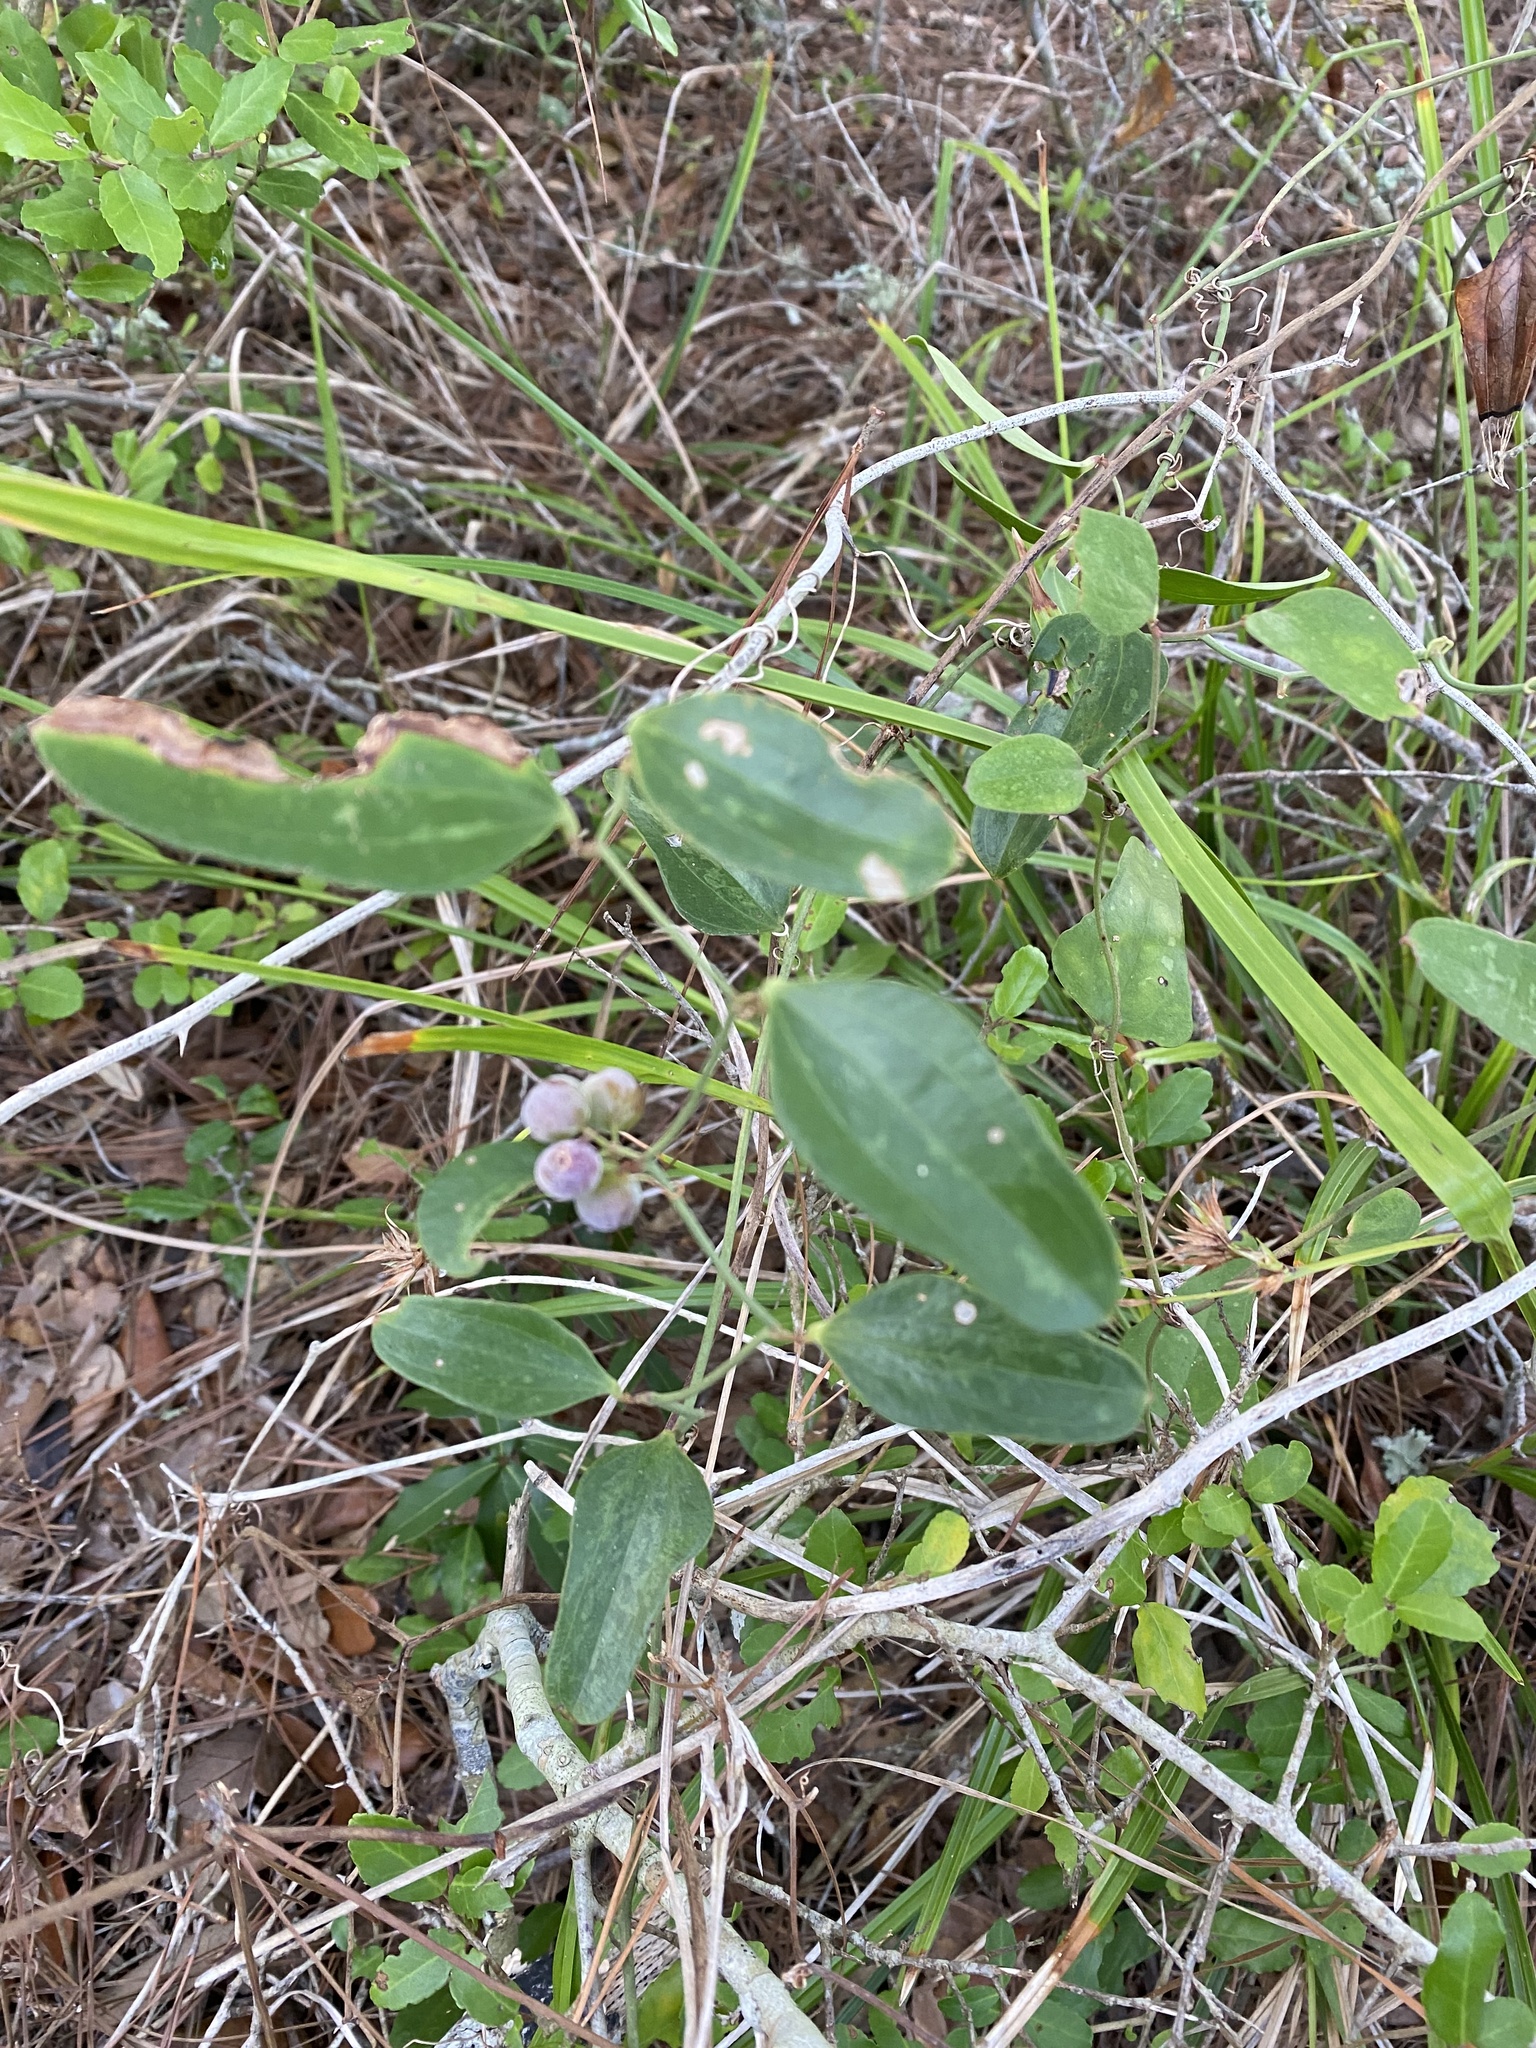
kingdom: Plantae
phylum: Tracheophyta
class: Liliopsida
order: Liliales
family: Smilacaceae
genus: Smilax
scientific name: Smilax auriculata
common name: Wild bamboo
